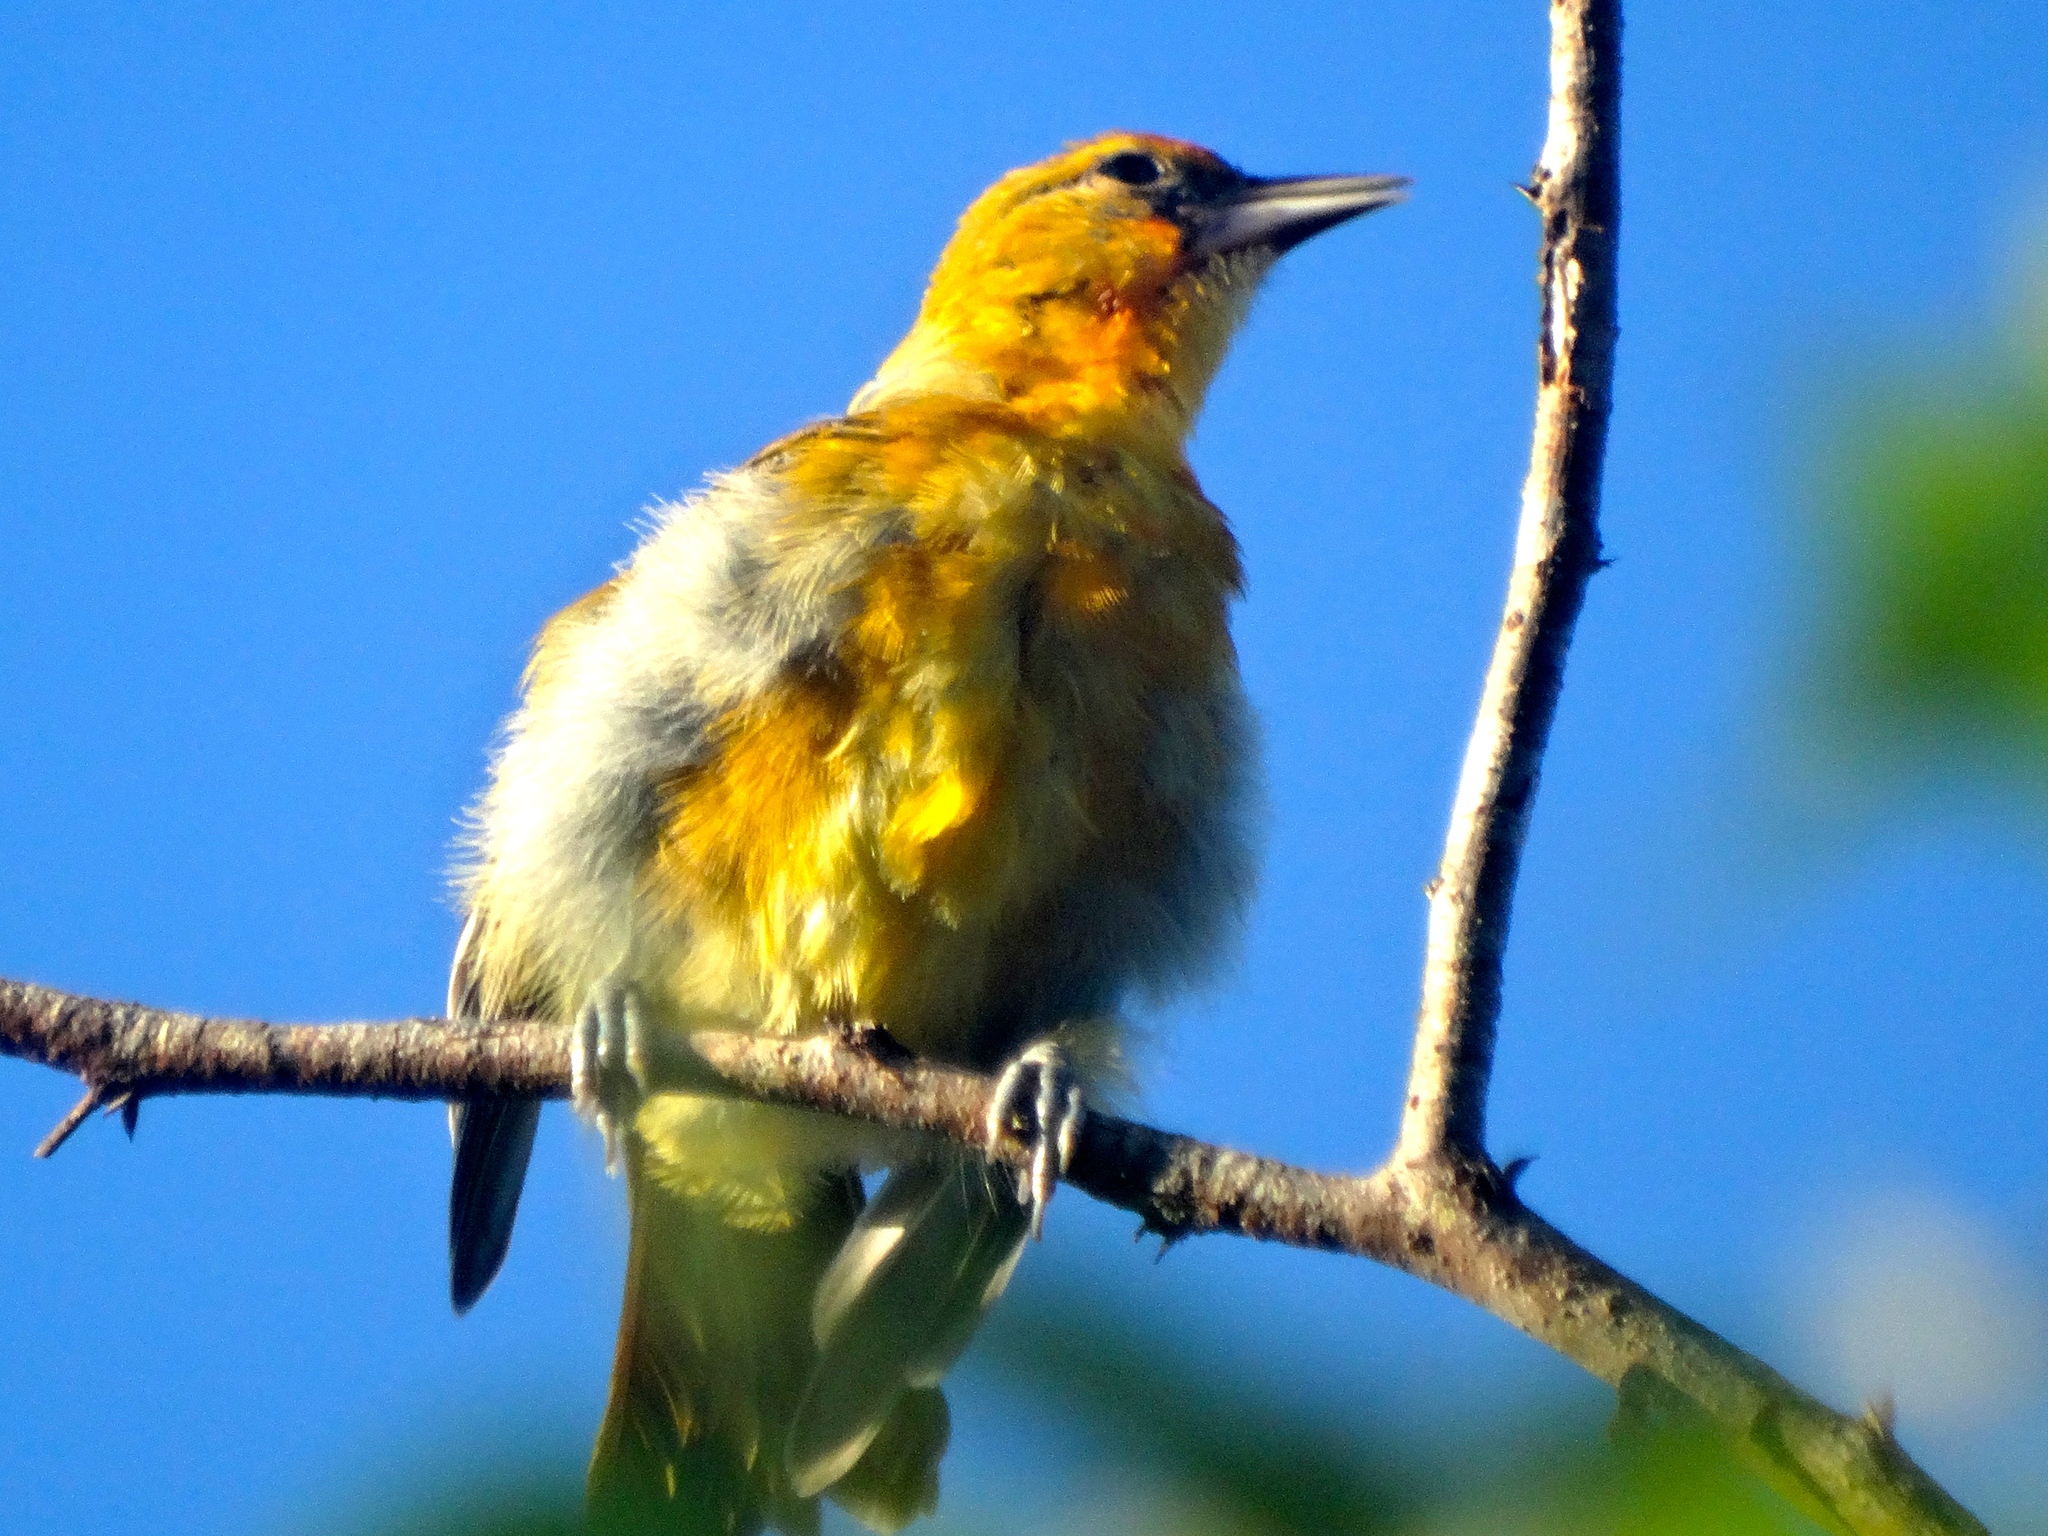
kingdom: Animalia
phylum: Chordata
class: Aves
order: Passeriformes
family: Icteridae
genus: Icterus
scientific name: Icterus bullockii
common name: Bullock's oriole
